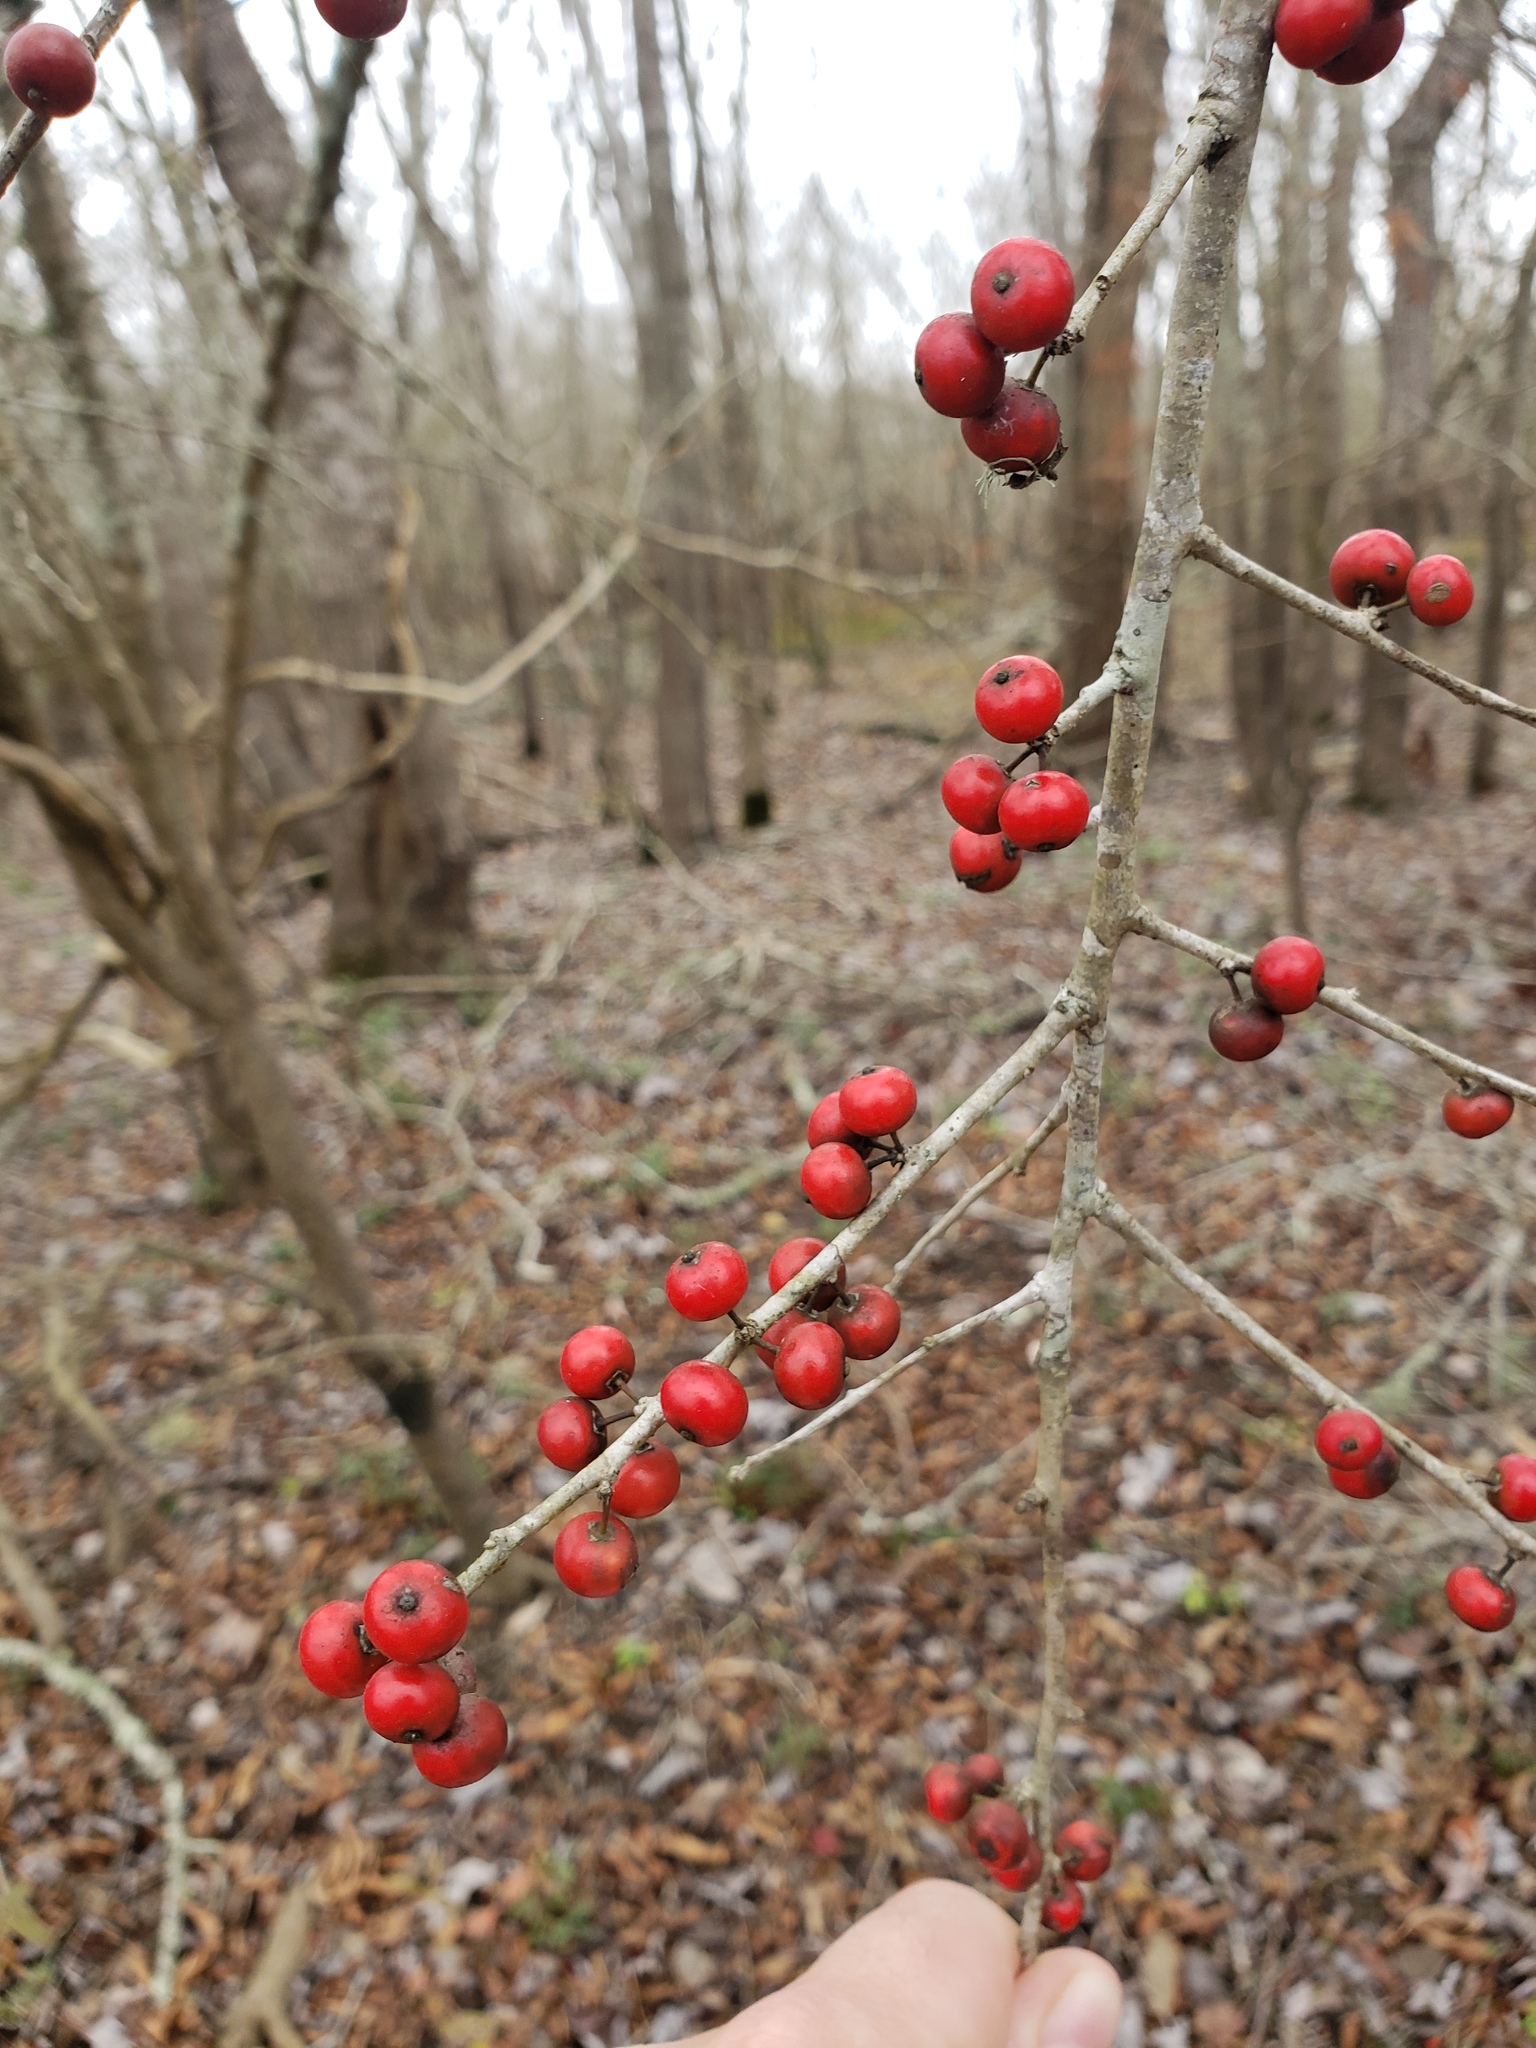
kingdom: Plantae
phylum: Tracheophyta
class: Magnoliopsida
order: Aquifoliales
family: Aquifoliaceae
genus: Ilex
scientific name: Ilex decidua
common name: Possum-haw
